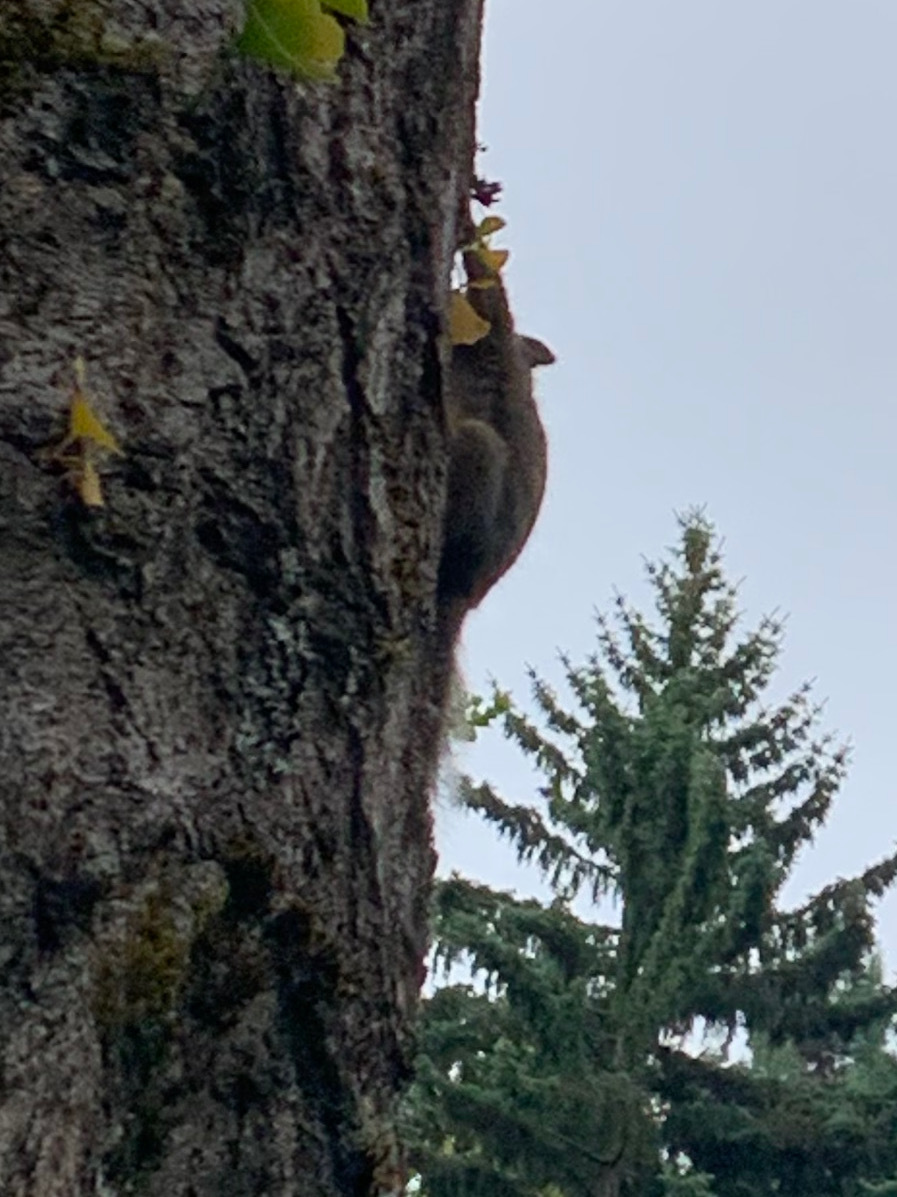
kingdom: Animalia
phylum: Chordata
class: Mammalia
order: Rodentia
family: Sciuridae
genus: Tamiasciurus
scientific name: Tamiasciurus douglasii
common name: Douglas's squirrel
